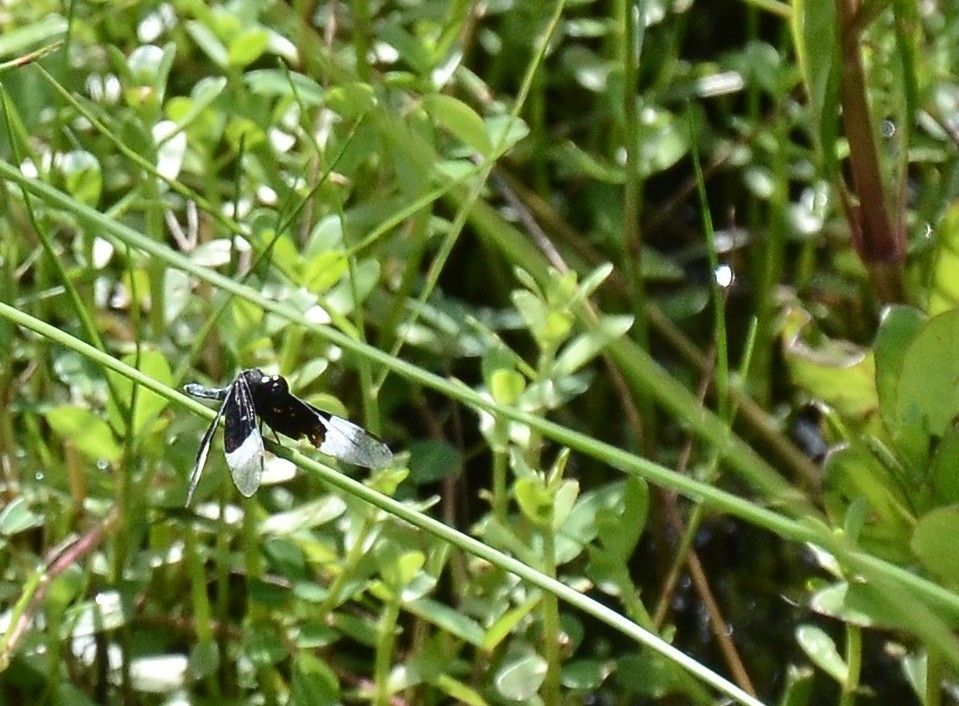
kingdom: Animalia
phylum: Arthropoda
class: Insecta
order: Odonata
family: Libellulidae
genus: Neurothemis
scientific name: Neurothemis tullia
